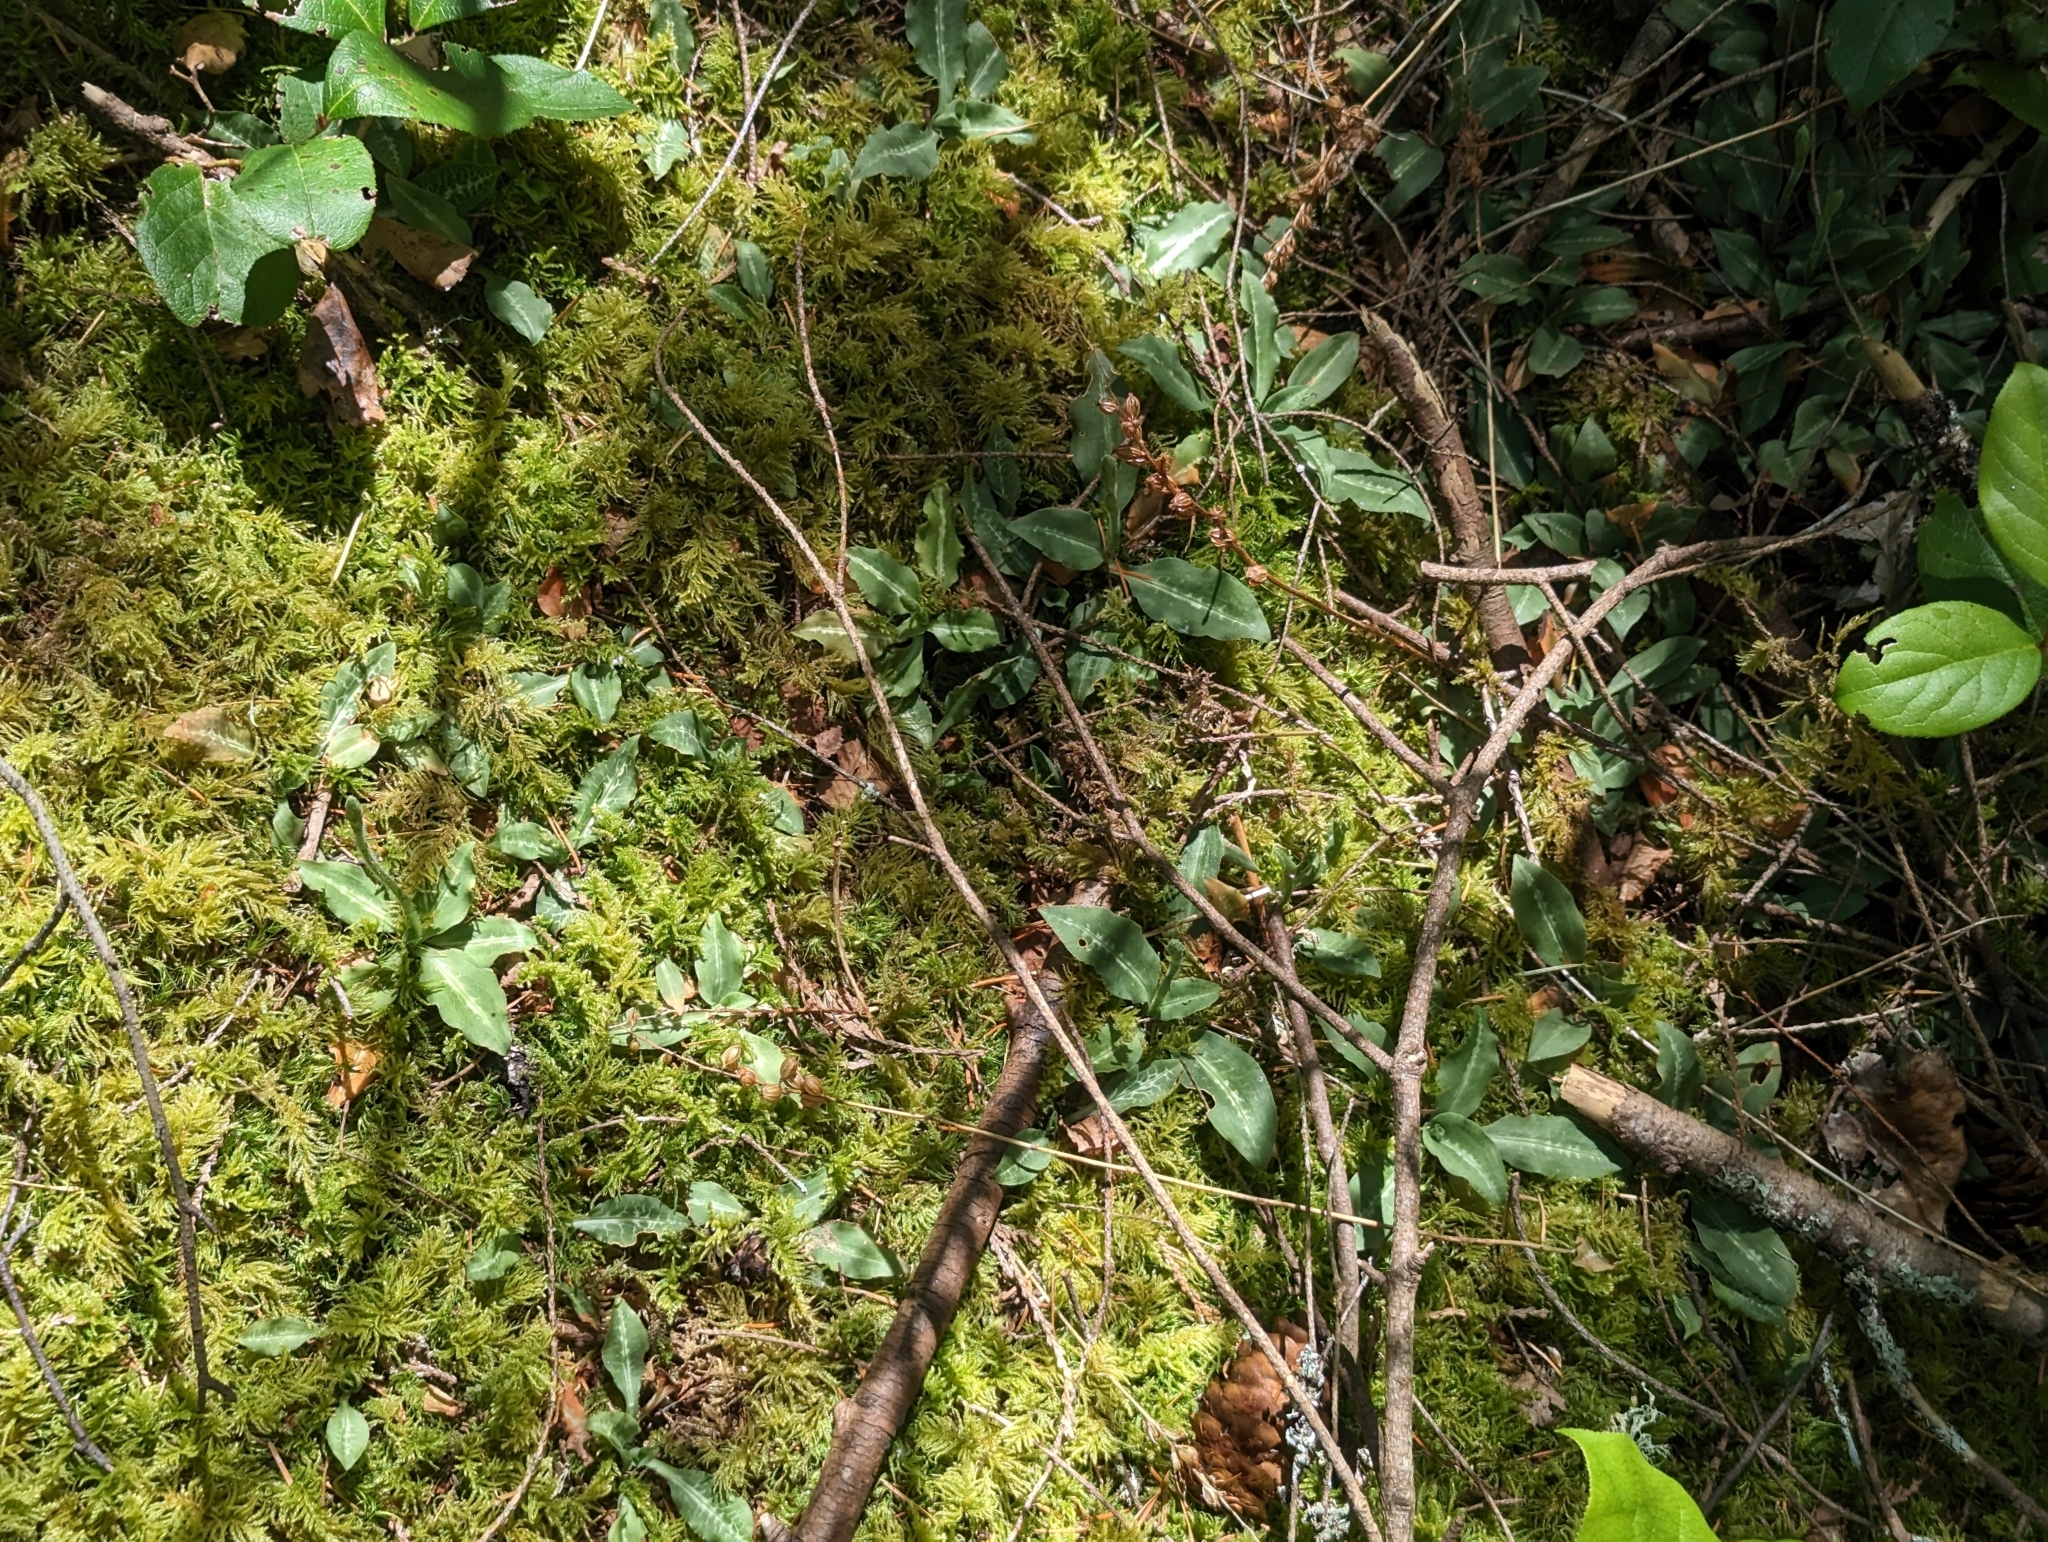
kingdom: Plantae
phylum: Tracheophyta
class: Liliopsida
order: Asparagales
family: Orchidaceae
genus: Goodyera
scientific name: Goodyera oblongifolia
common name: Giant rattlesnake-plantain
